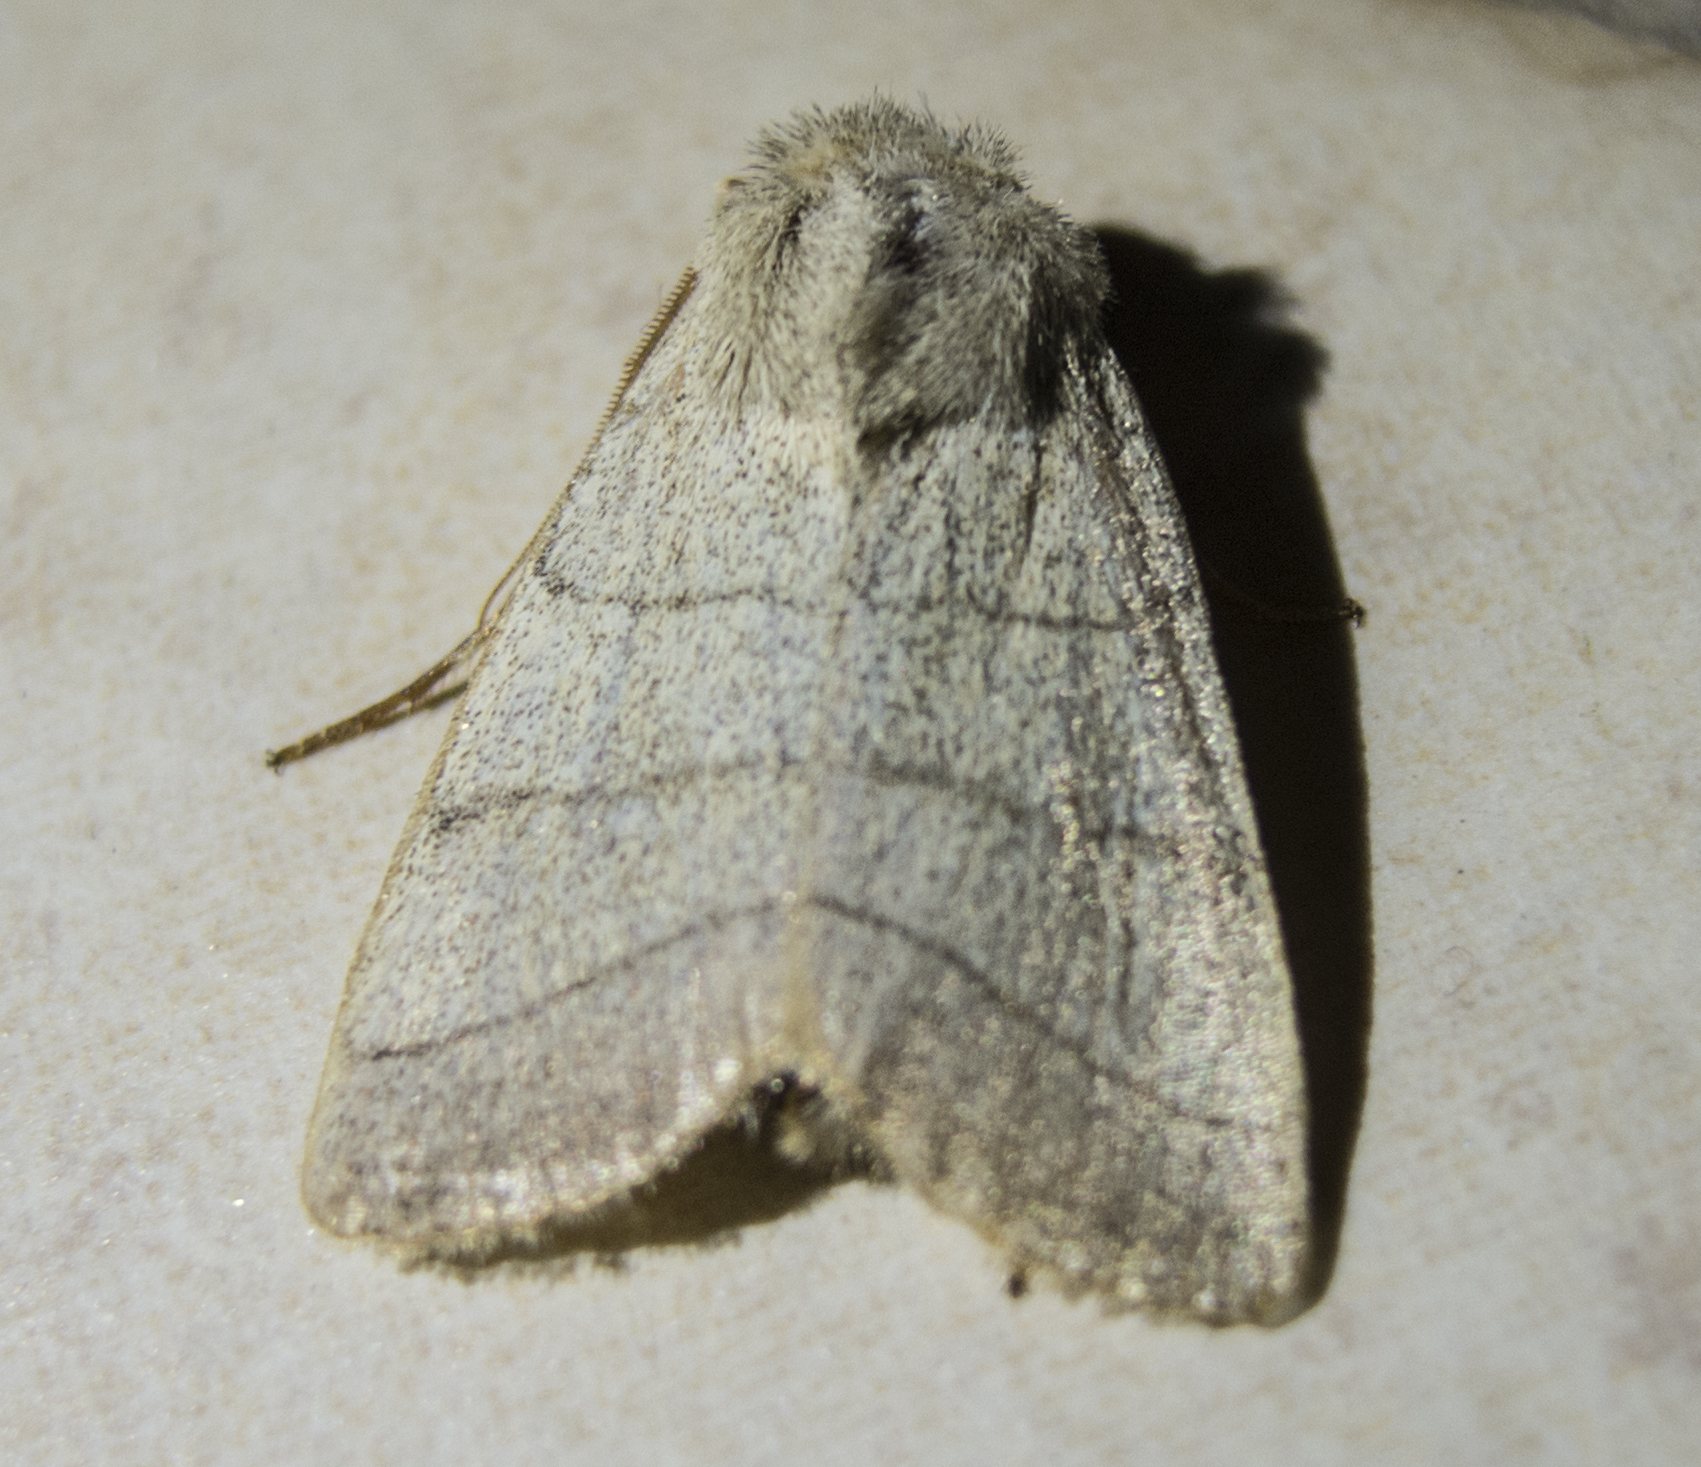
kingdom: Animalia
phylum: Arthropoda
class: Insecta
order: Lepidoptera
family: Noctuidae
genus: Charanyca
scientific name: Charanyca trigrammica
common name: Treble lines
